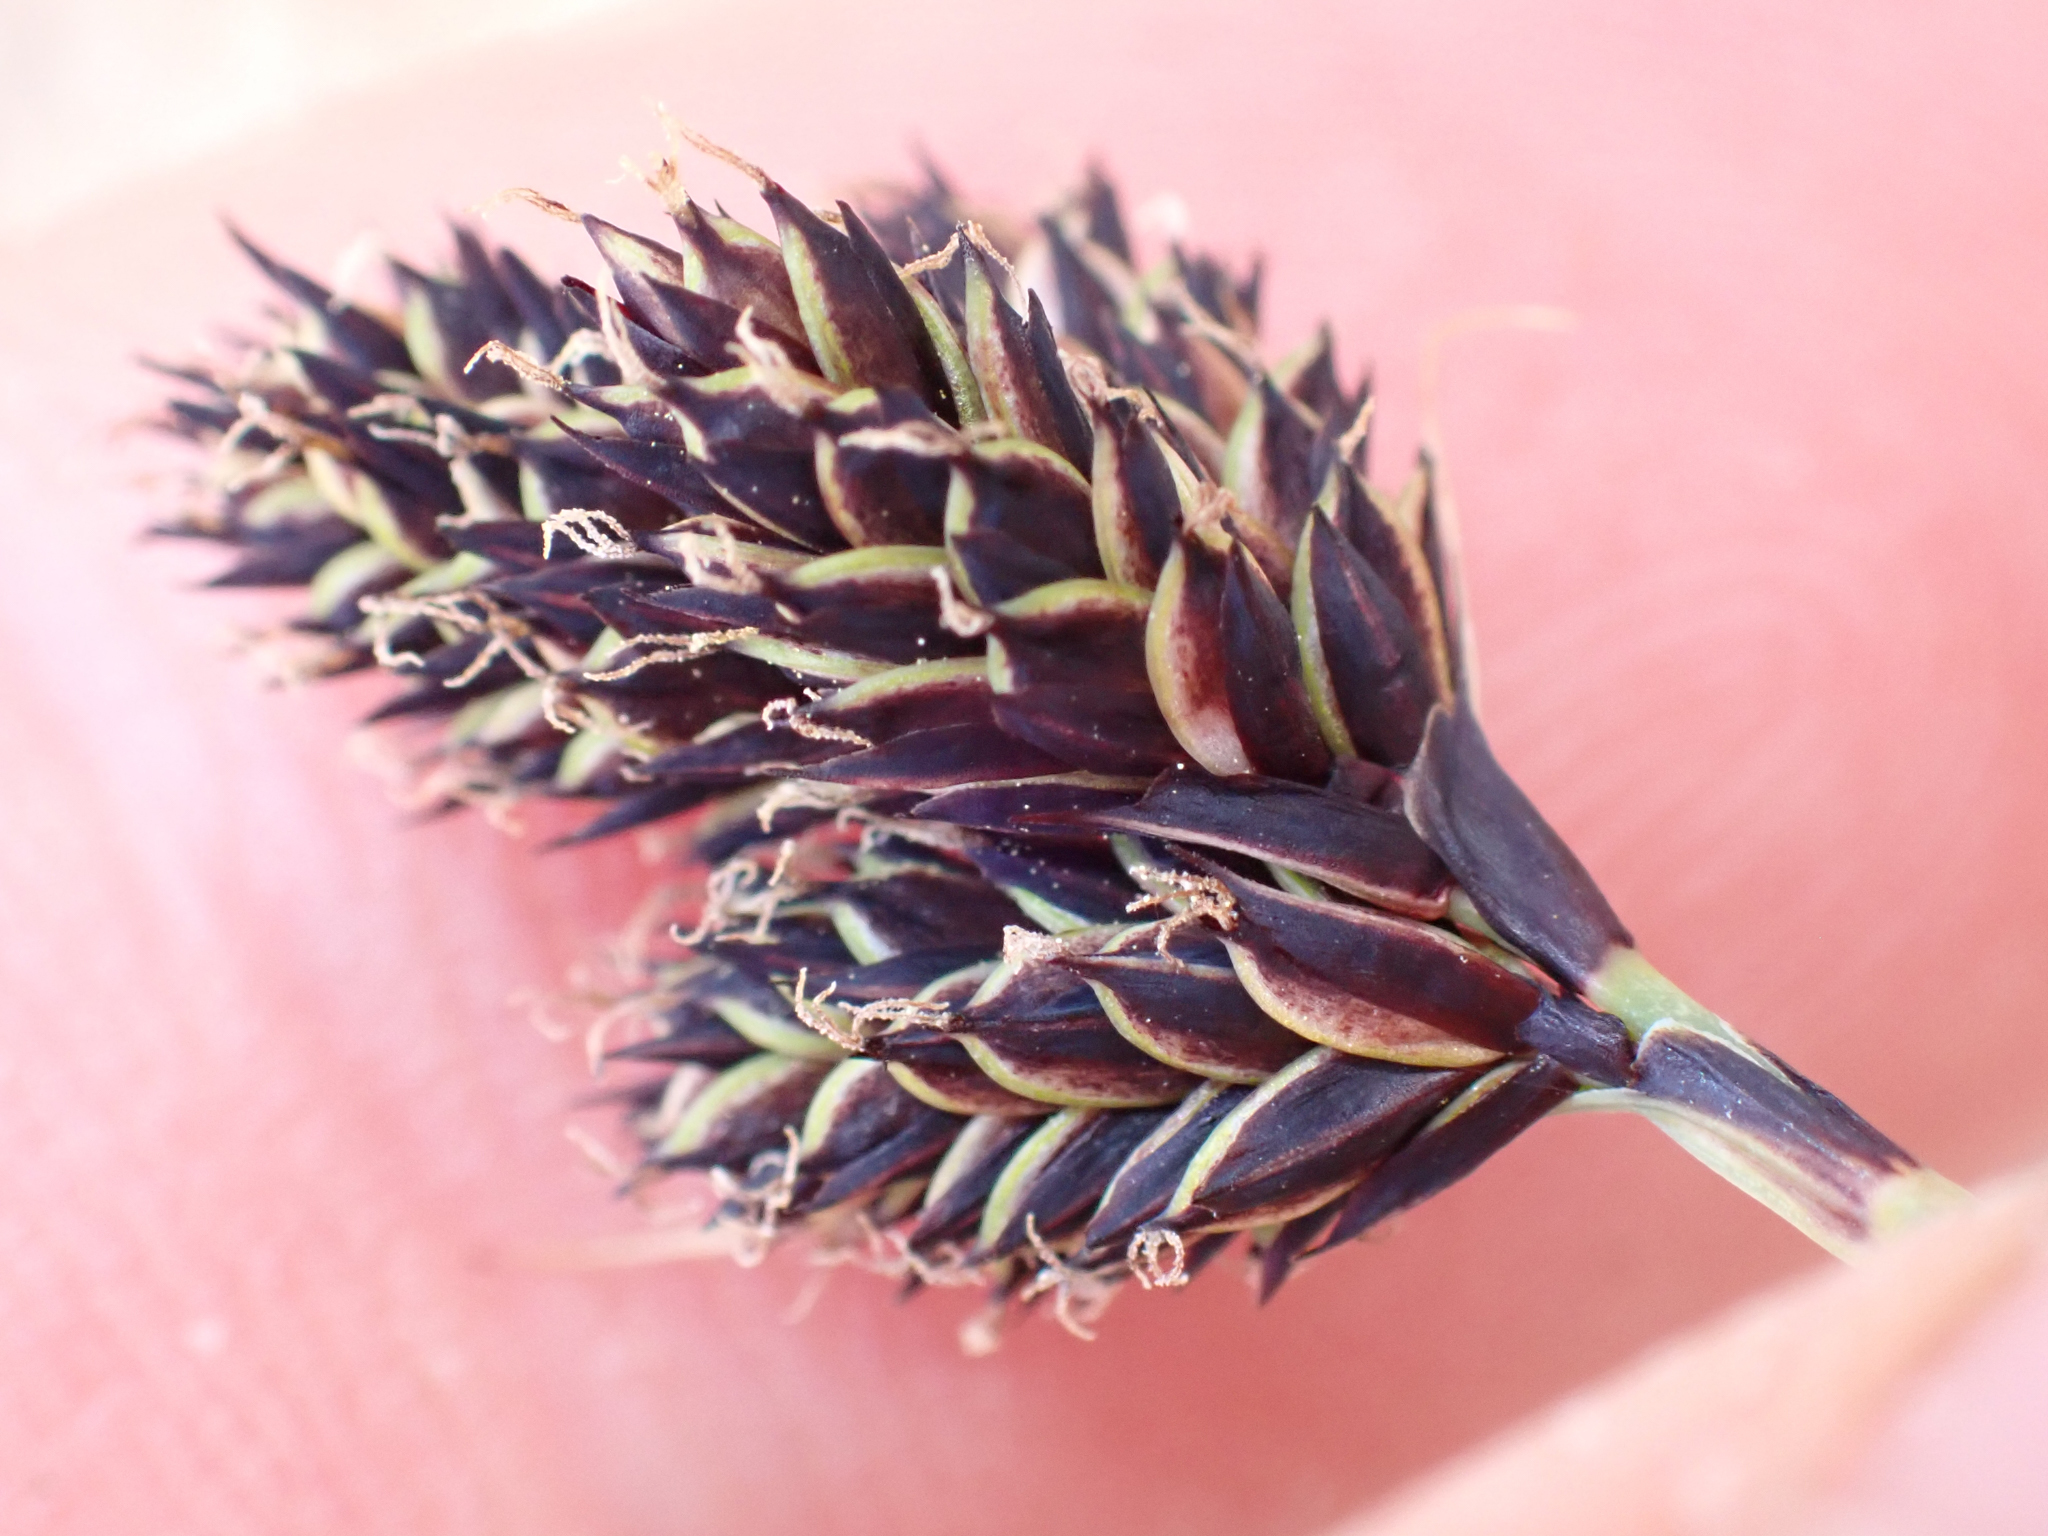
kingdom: Plantae
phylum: Tracheophyta
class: Liliopsida
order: Poales
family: Cyperaceae
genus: Carex
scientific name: Carex helleri
